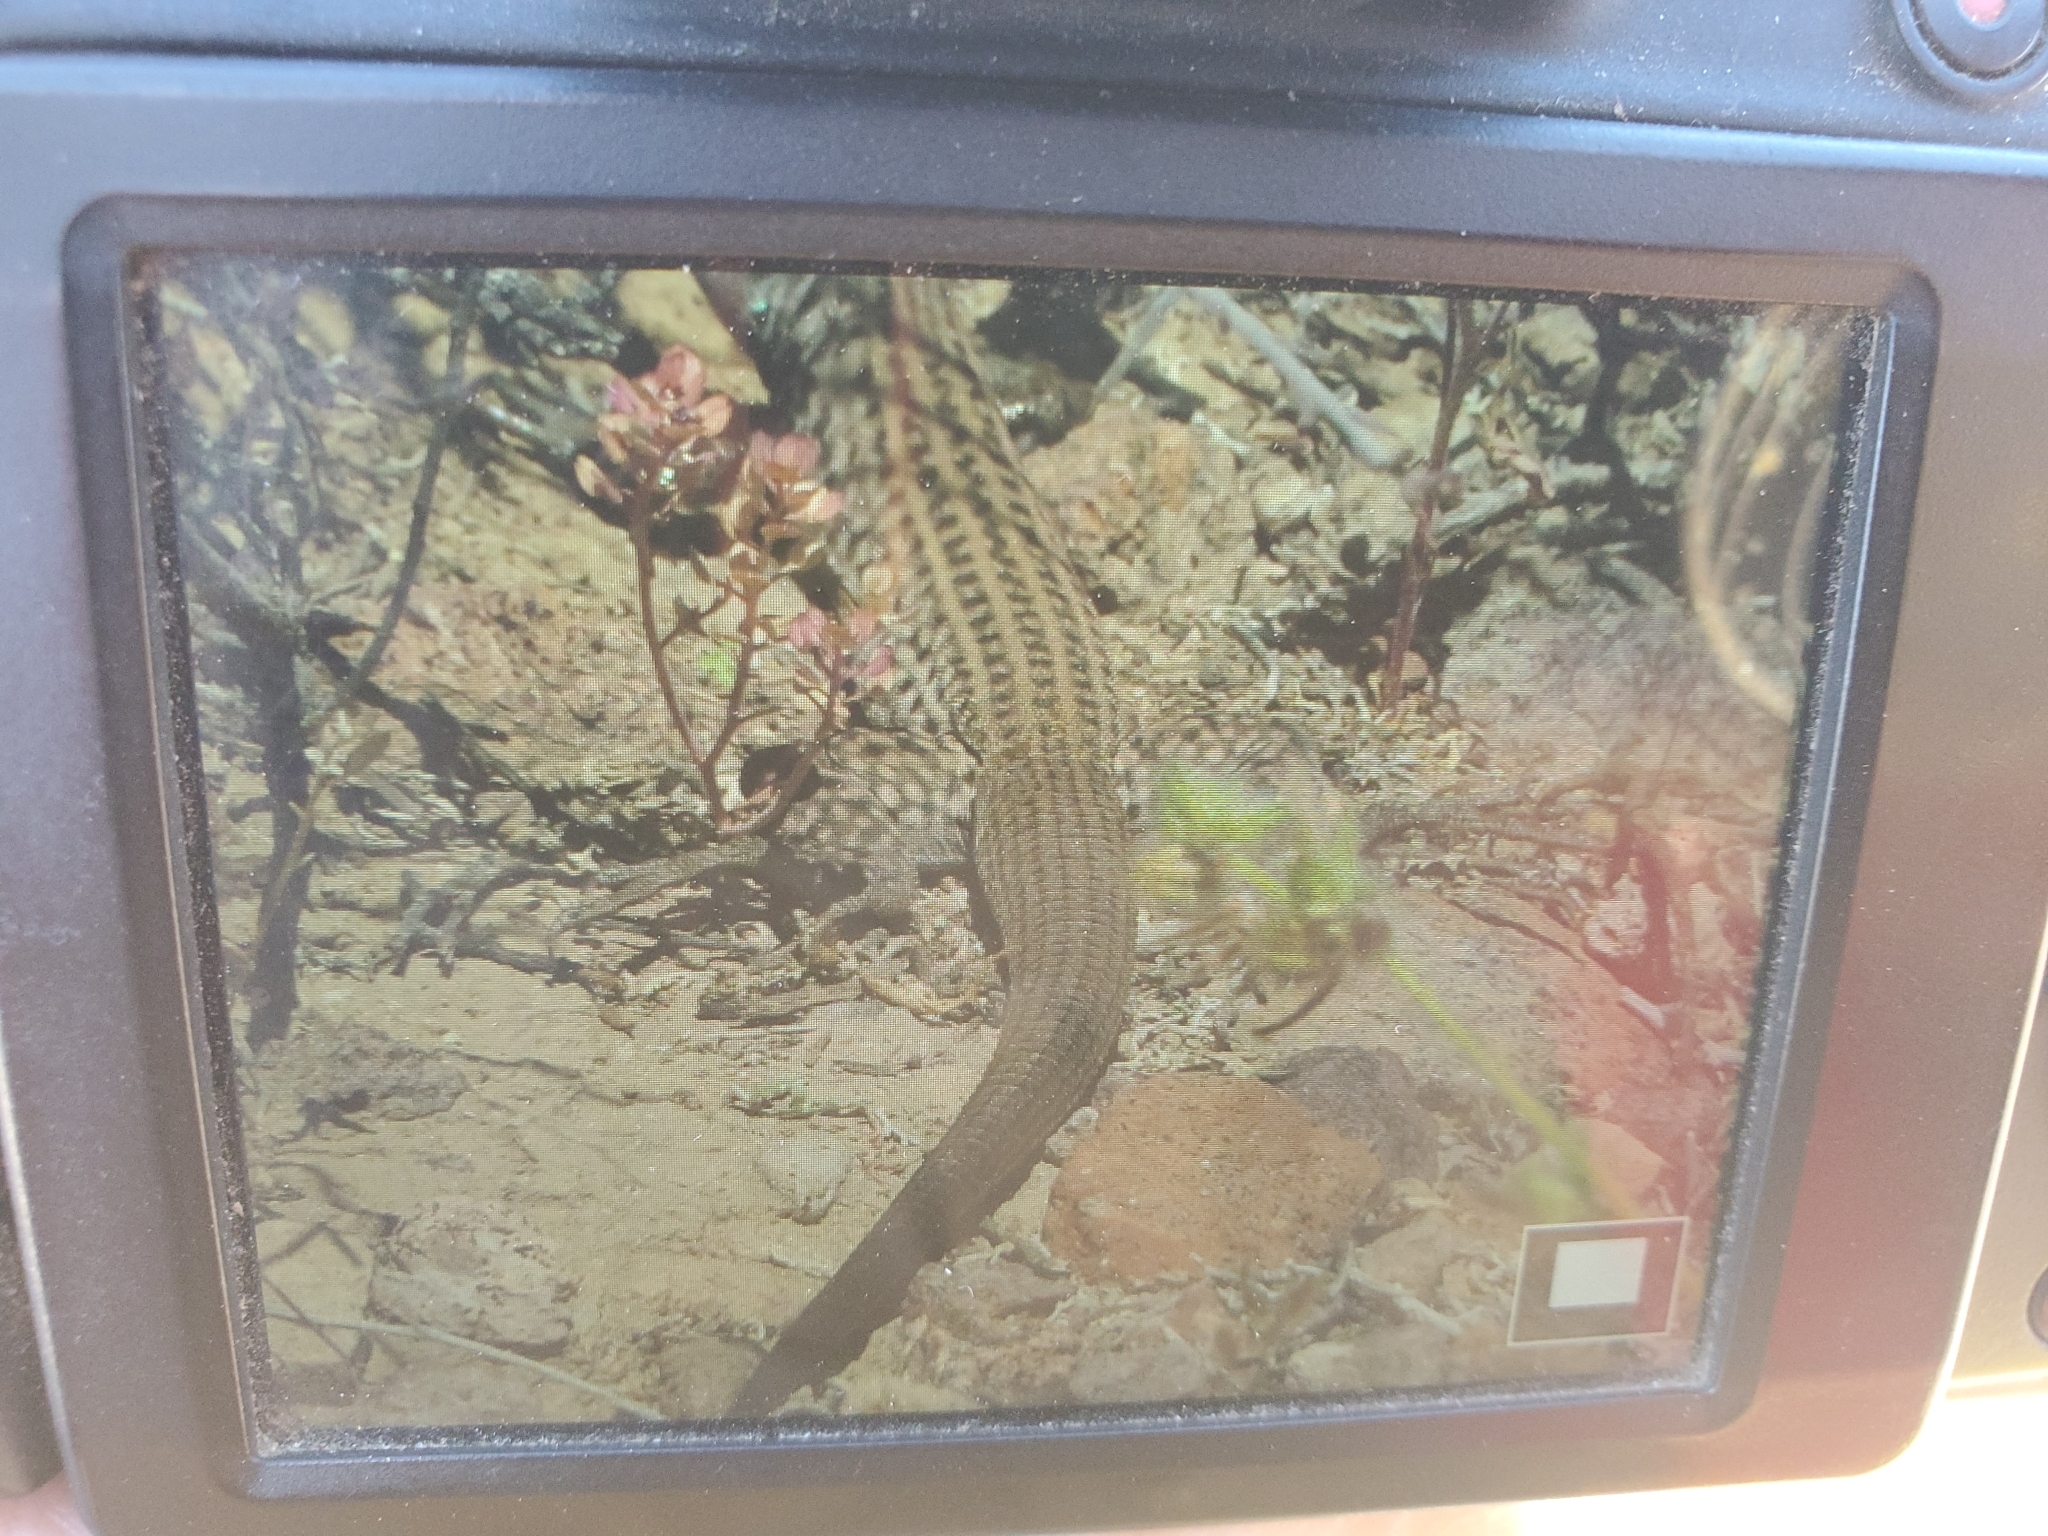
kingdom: Animalia
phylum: Chordata
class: Squamata
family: Teiidae
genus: Aspidoscelis
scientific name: Aspidoscelis tigris
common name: Tiger whiptail
